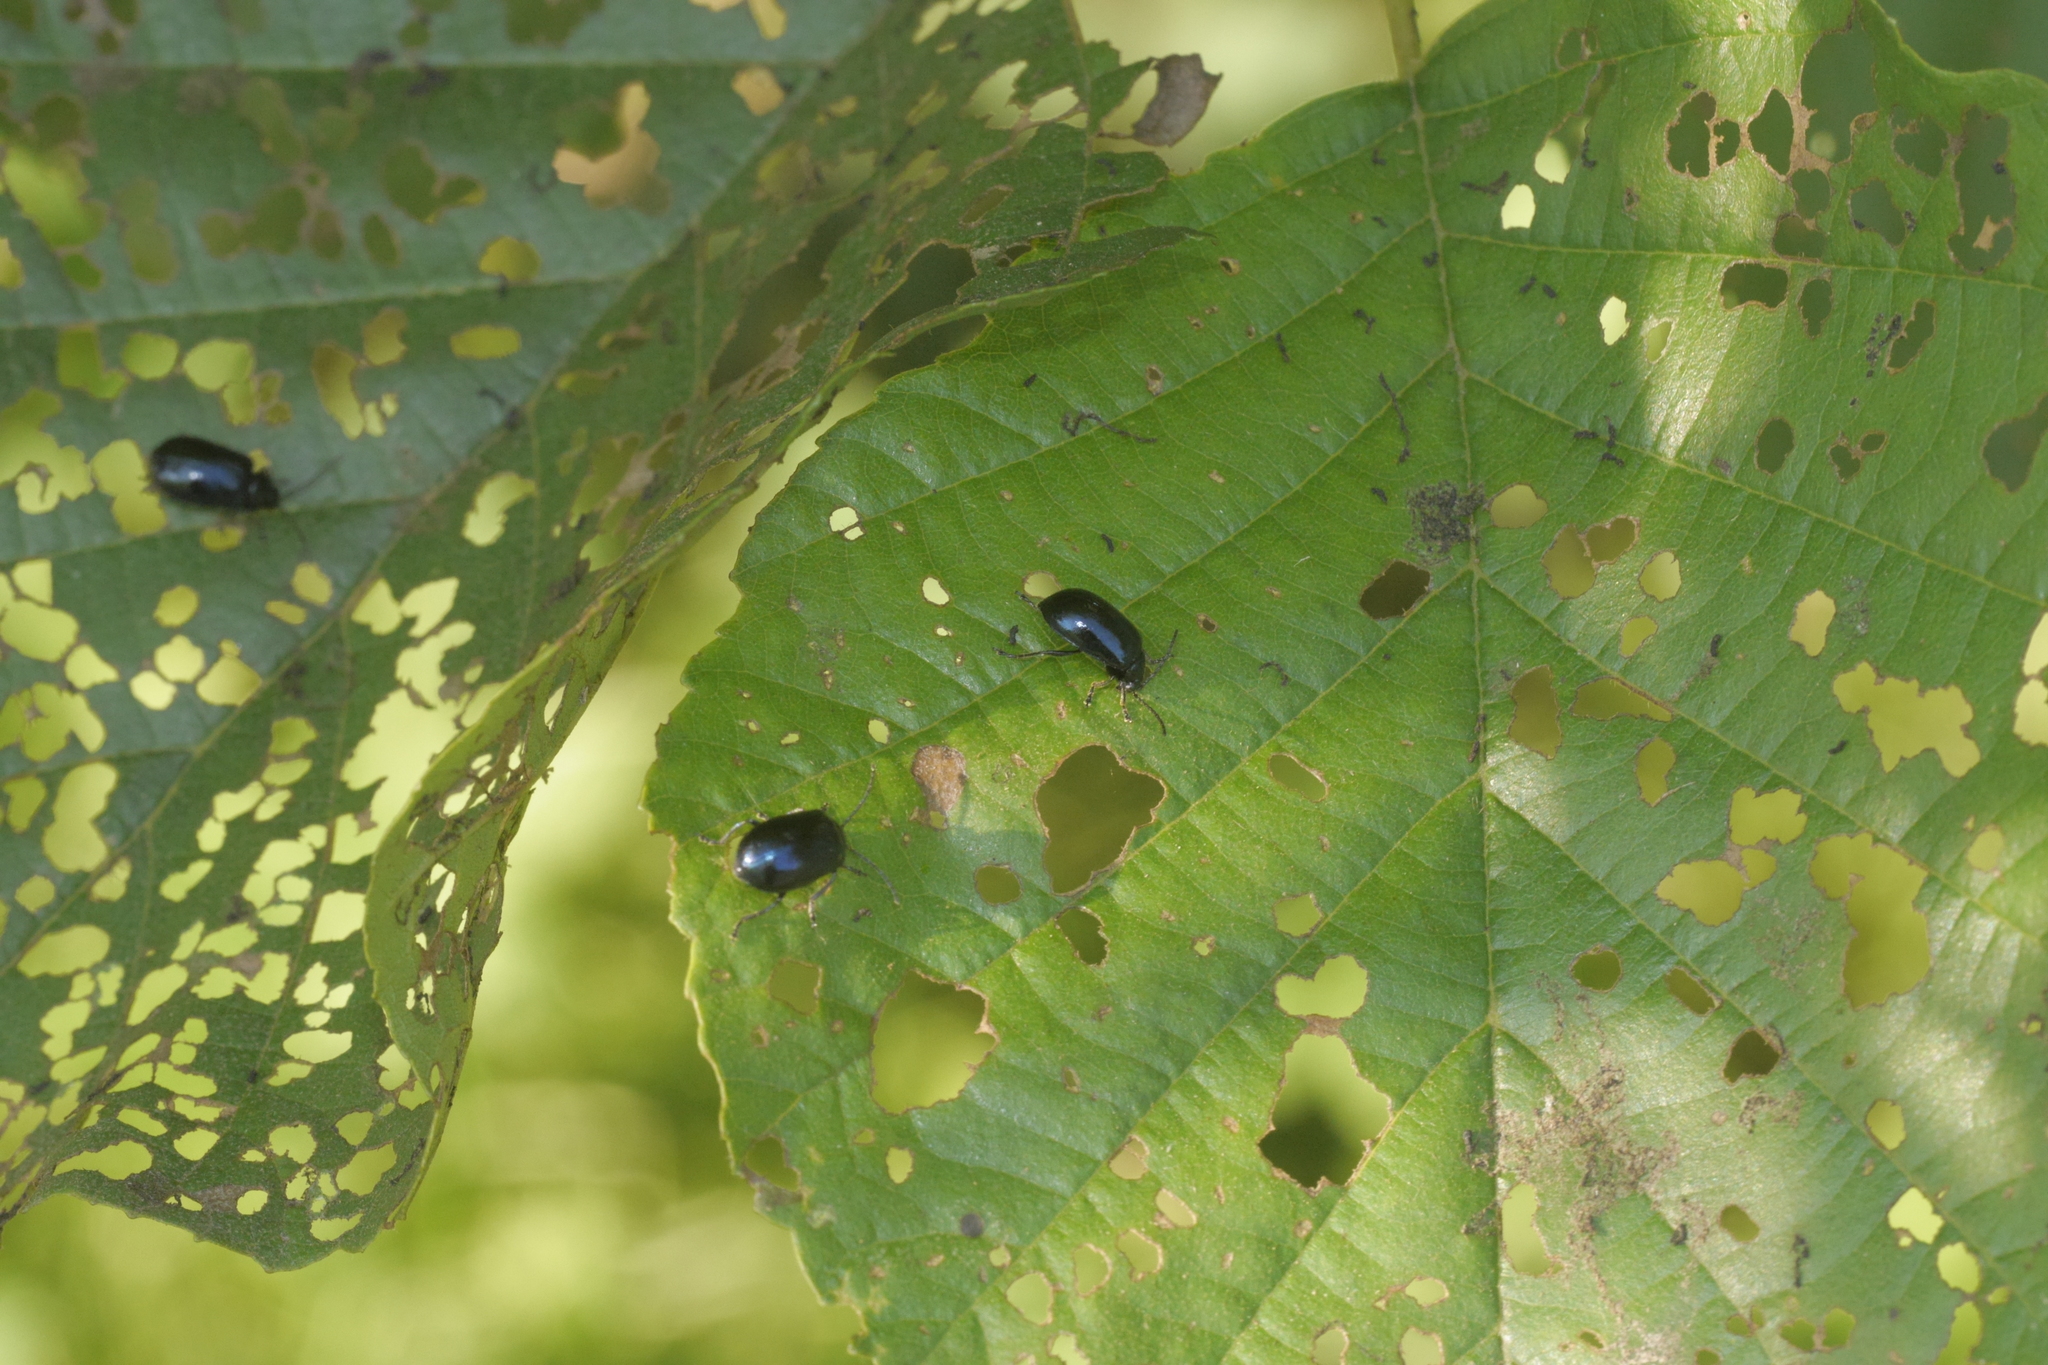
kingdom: Animalia
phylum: Arthropoda
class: Insecta
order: Coleoptera
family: Chrysomelidae
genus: Agelastica
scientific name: Agelastica alni
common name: Alder leaf beetle
